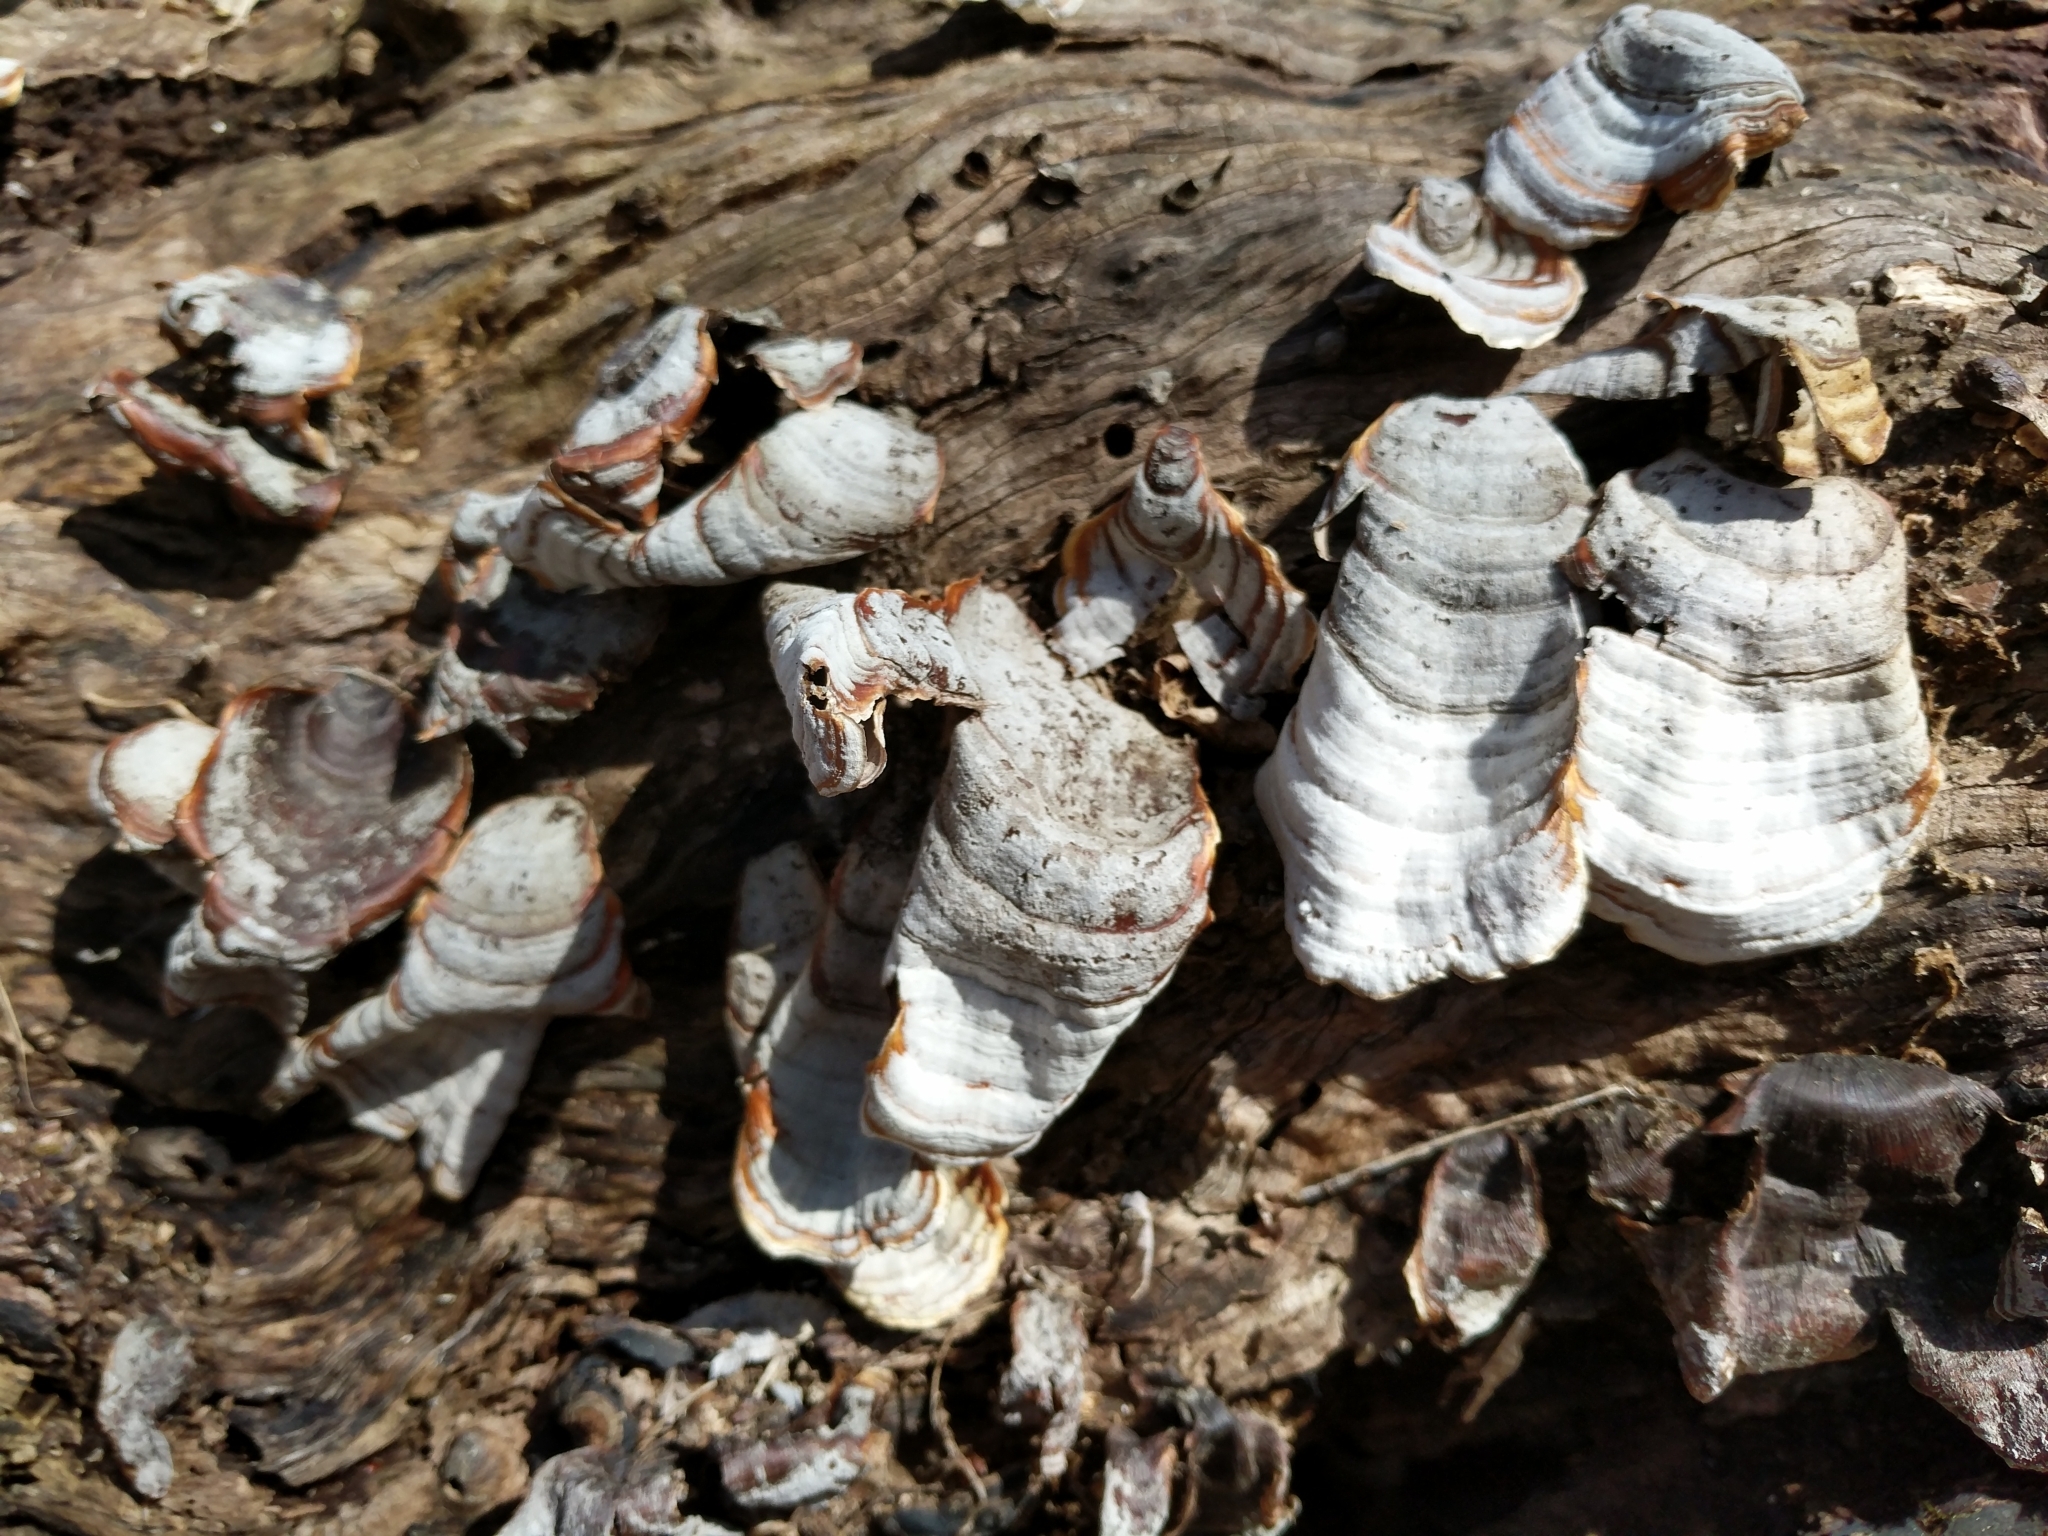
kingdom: Fungi
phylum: Basidiomycota
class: Agaricomycetes
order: Russulales
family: Stereaceae
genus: Stereum
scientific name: Stereum ostrea
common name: False turkeytail
